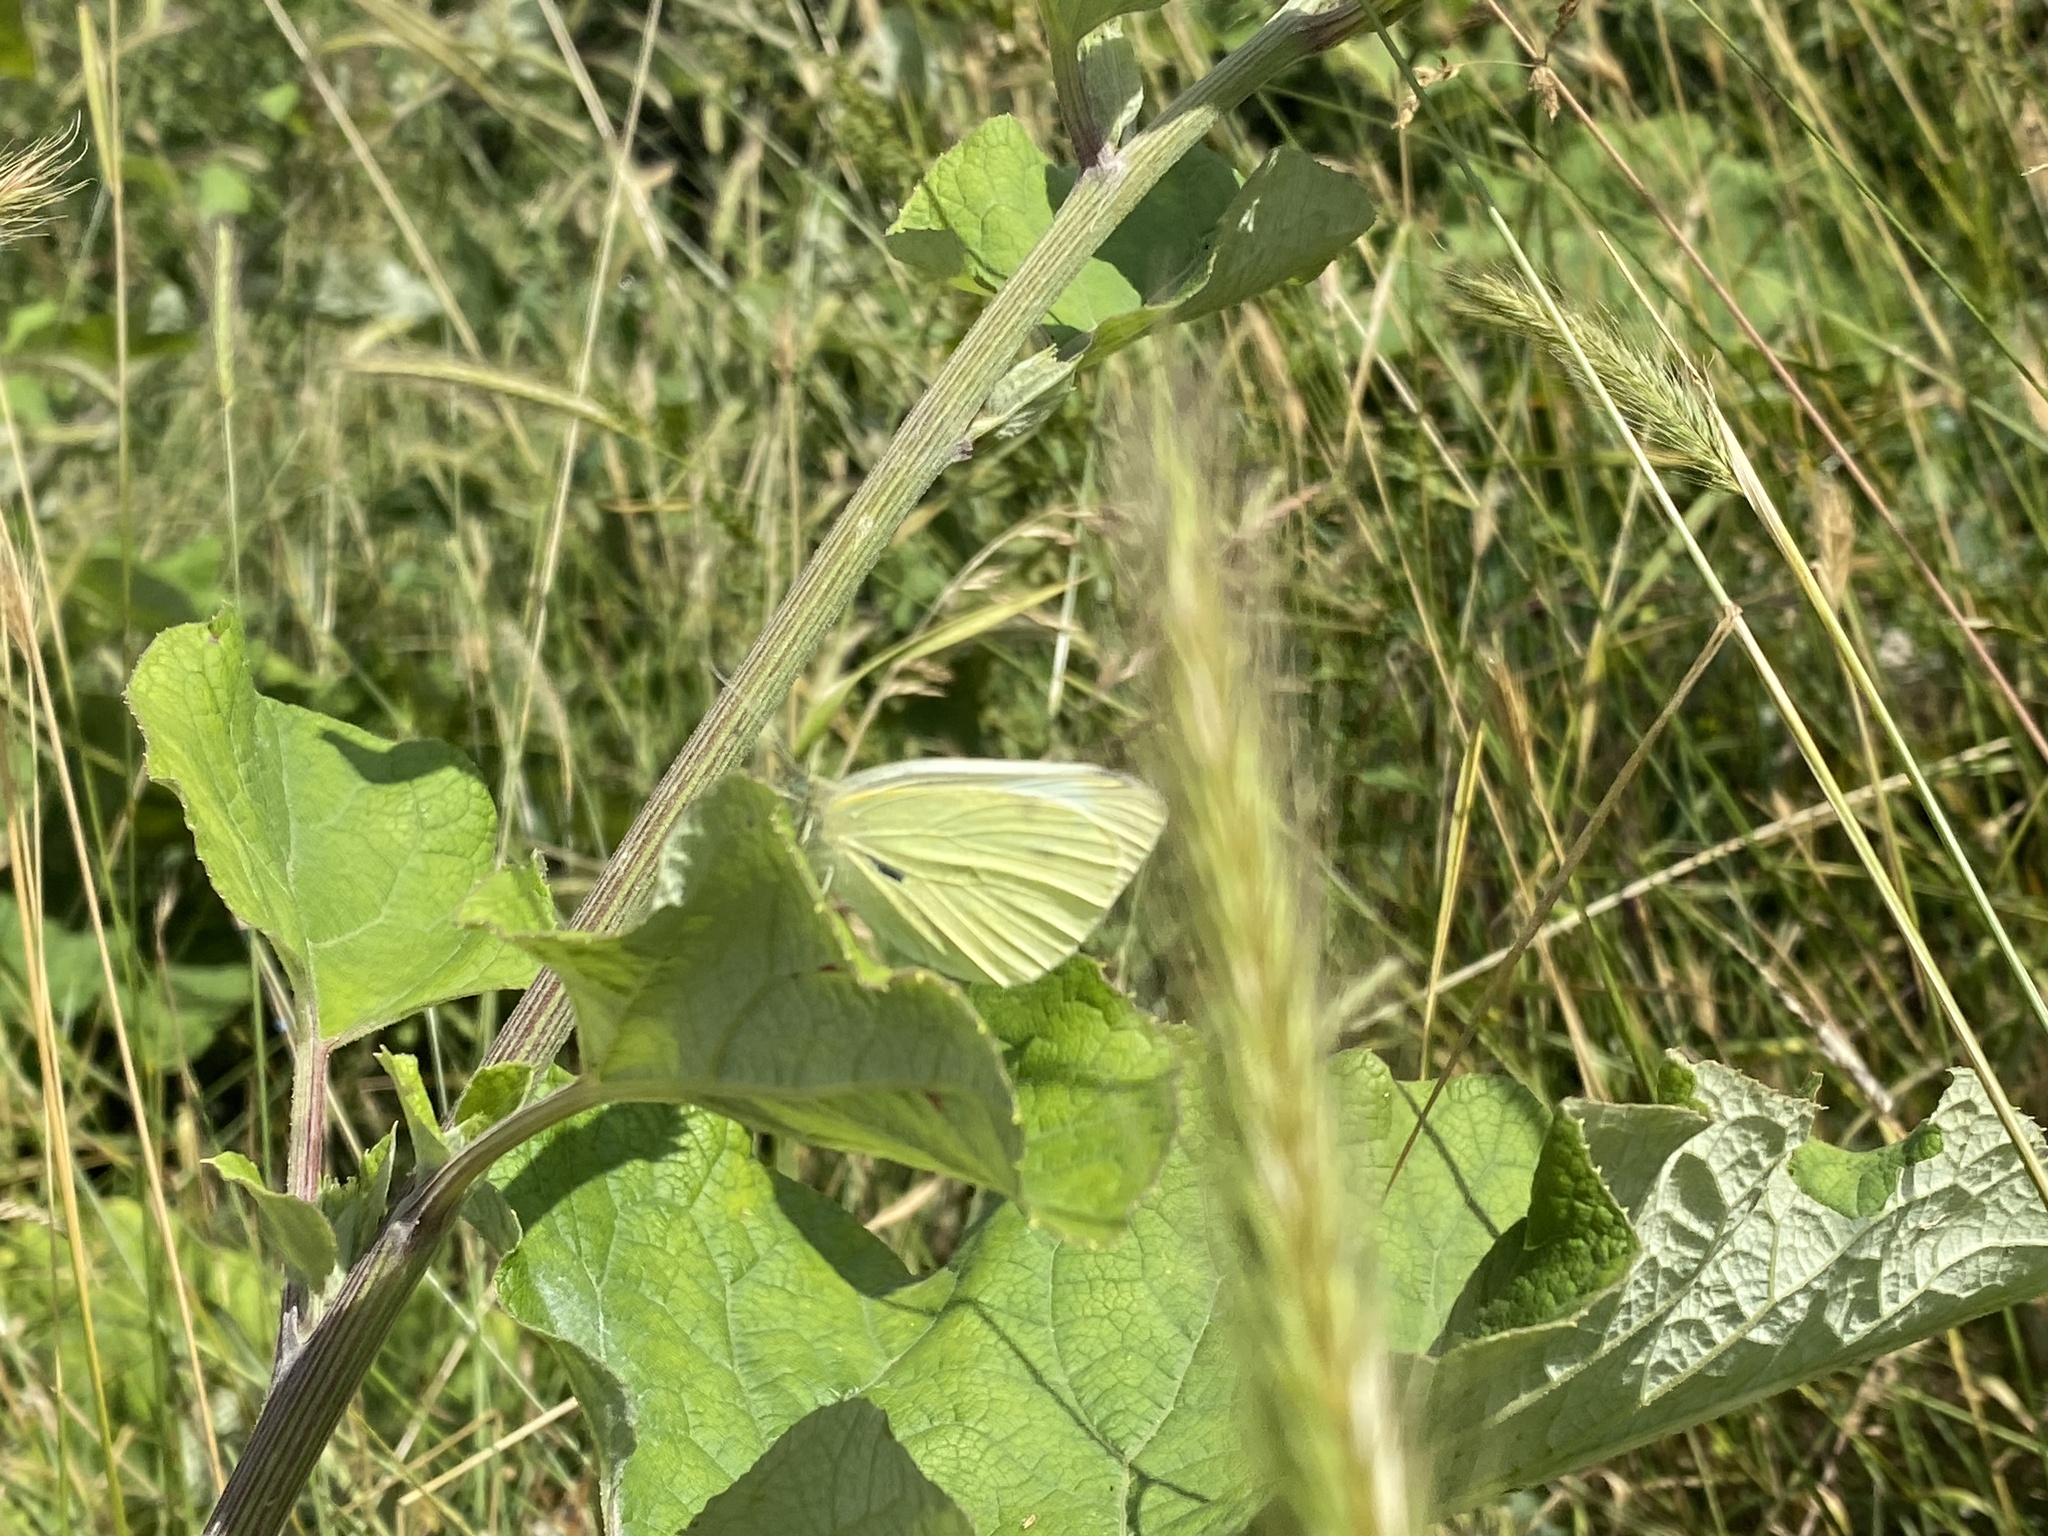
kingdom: Animalia
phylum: Arthropoda
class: Insecta
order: Lepidoptera
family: Pieridae
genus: Pieris
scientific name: Pieris rapae
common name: Small white
